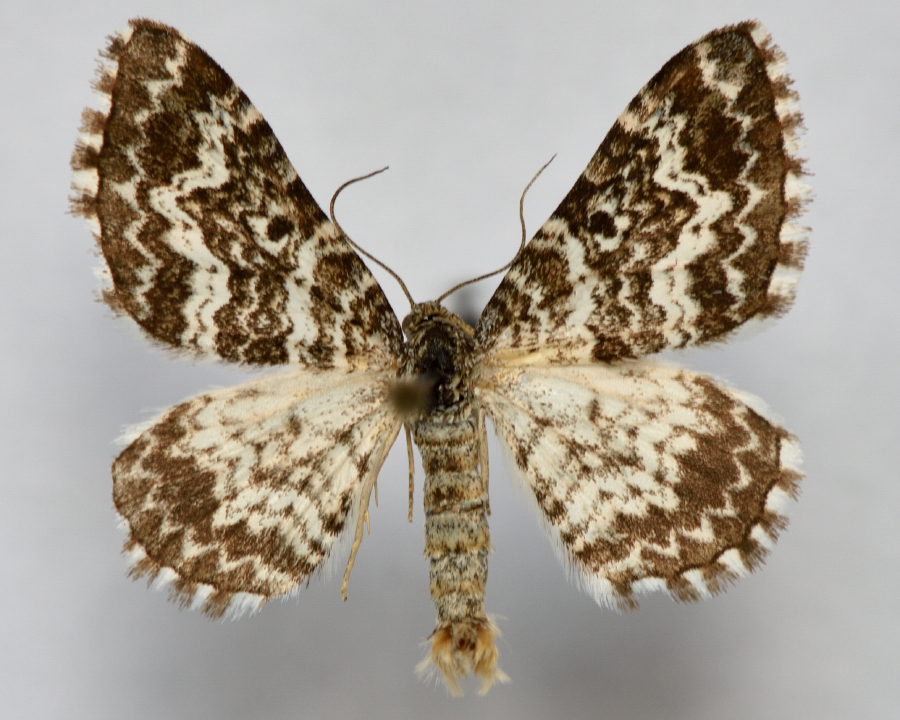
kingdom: Animalia
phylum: Arthropoda
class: Insecta
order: Lepidoptera
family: Geometridae
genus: Epirrhoe
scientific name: Epirrhoe pupillata
